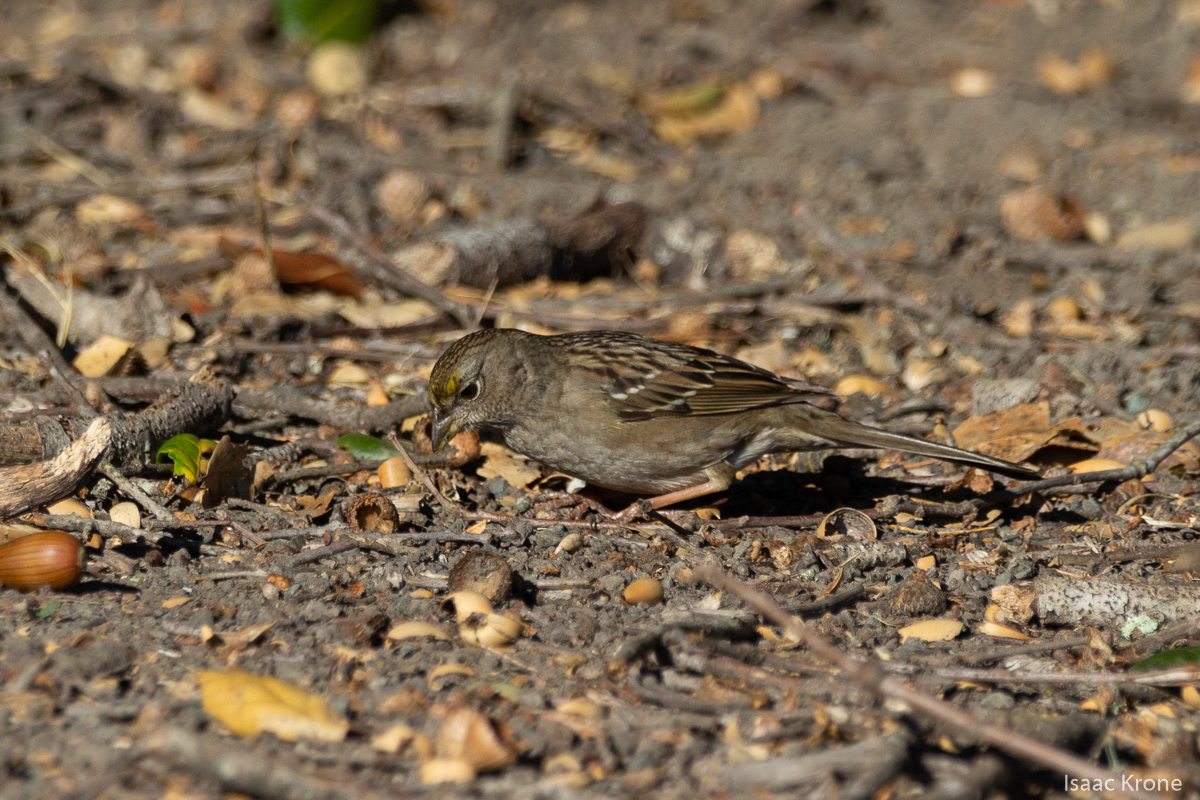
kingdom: Animalia
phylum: Chordata
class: Aves
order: Passeriformes
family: Passerellidae
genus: Zonotrichia
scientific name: Zonotrichia atricapilla
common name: Golden-crowned sparrow
